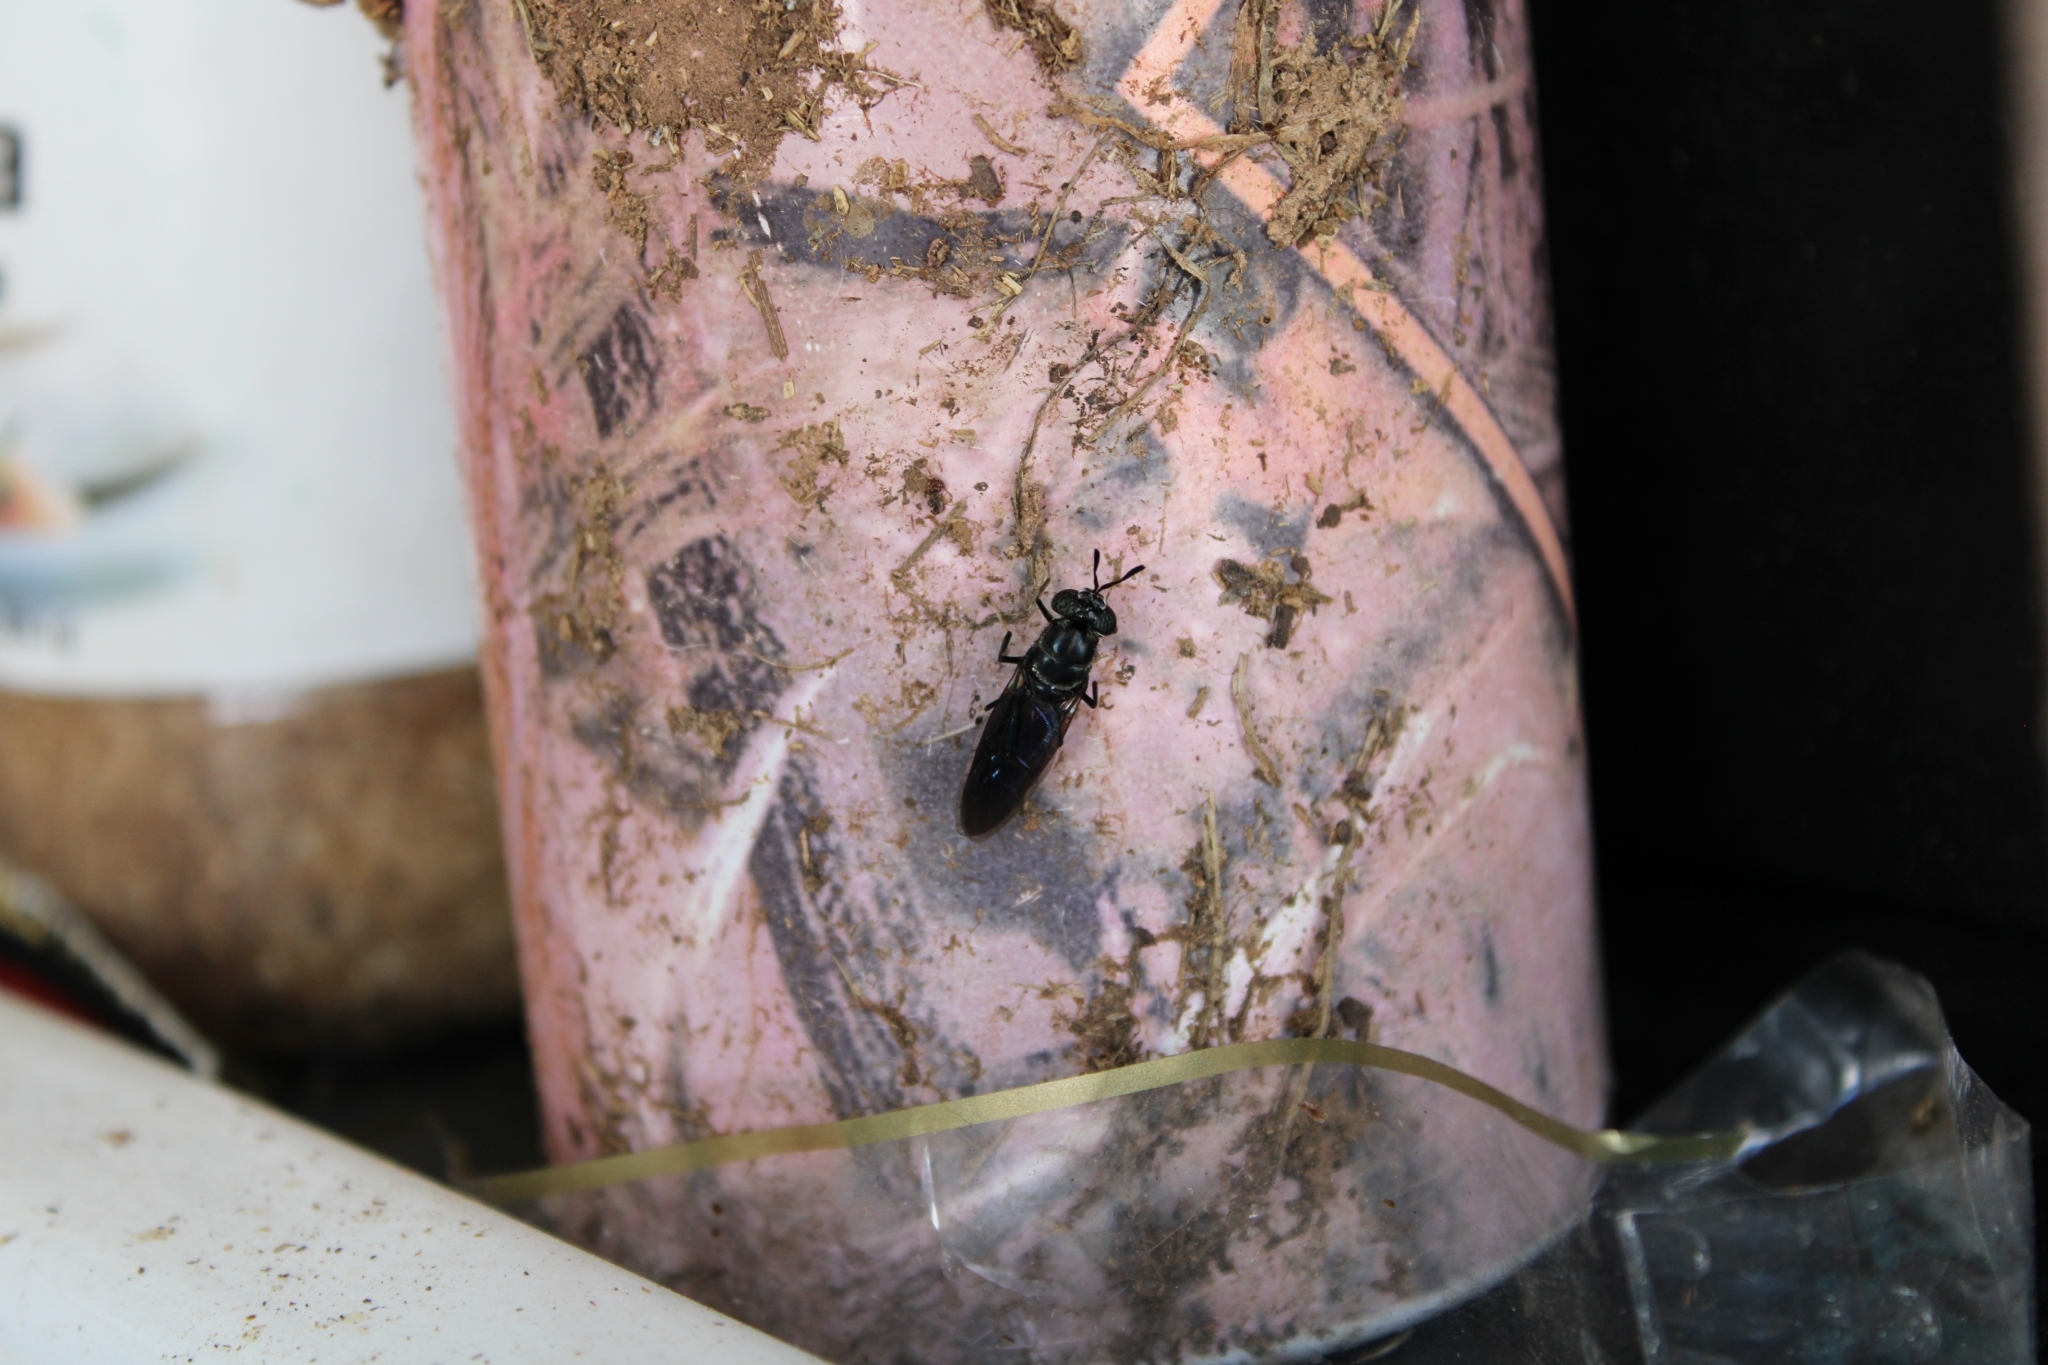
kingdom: Animalia
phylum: Arthropoda
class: Insecta
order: Diptera
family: Stratiomyidae
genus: Hermetia
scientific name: Hermetia illucens
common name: Black soldier fly
